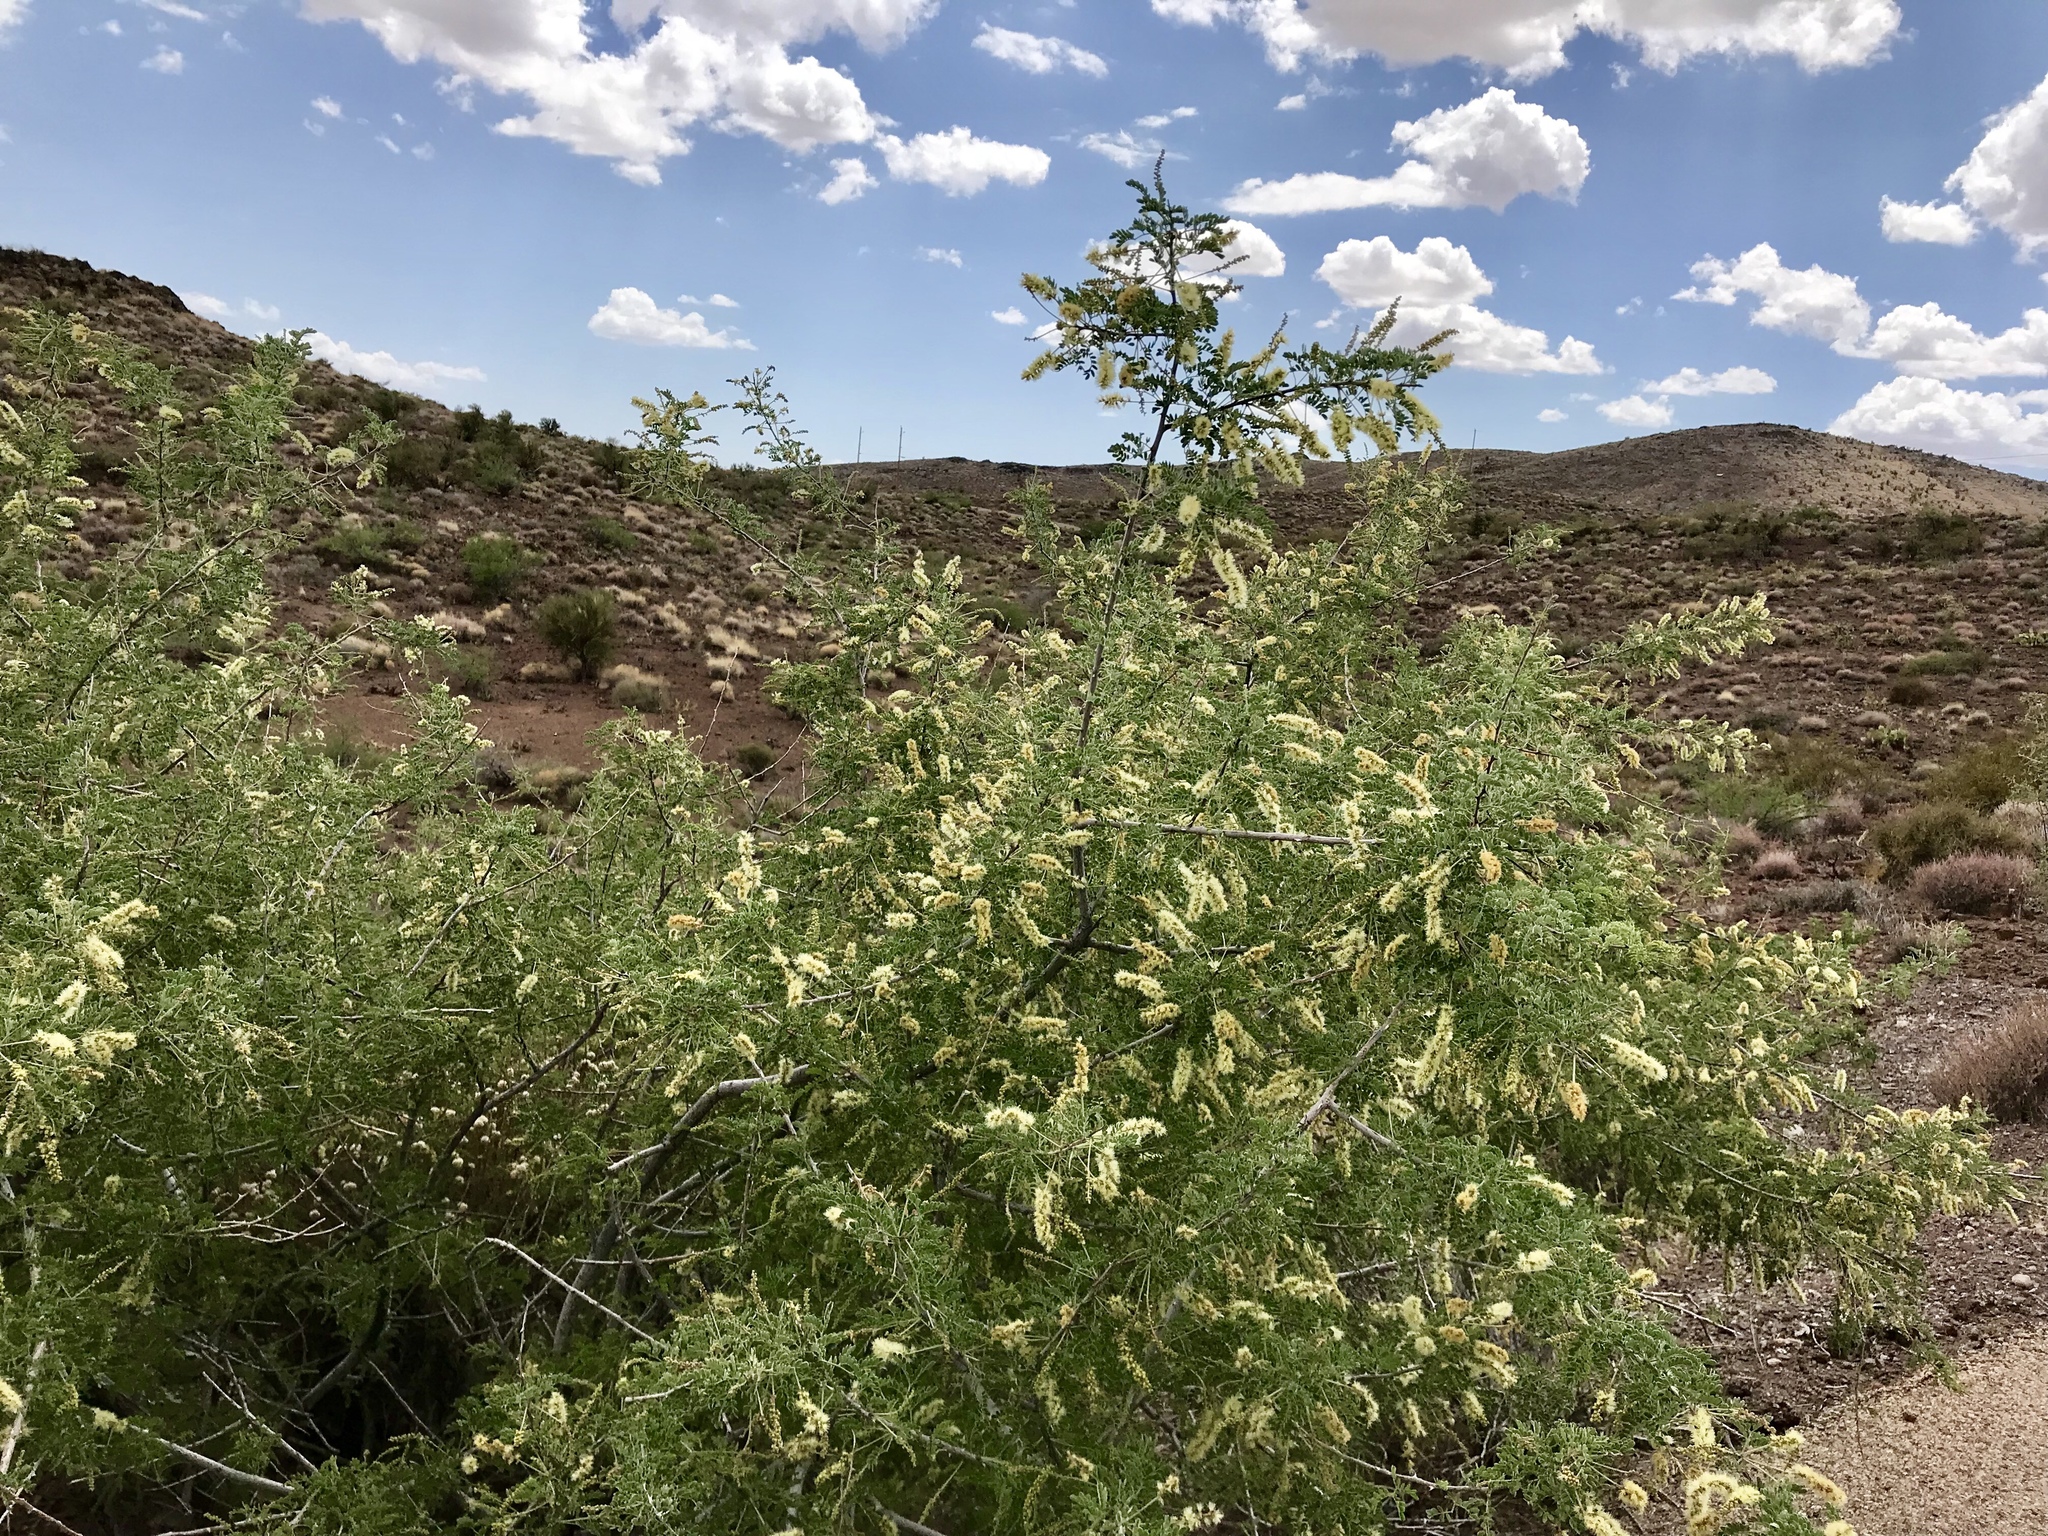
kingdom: Plantae
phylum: Tracheophyta
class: Magnoliopsida
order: Fabales
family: Fabaceae
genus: Senegalia
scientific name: Senegalia greggii
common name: Texas-mimosa
